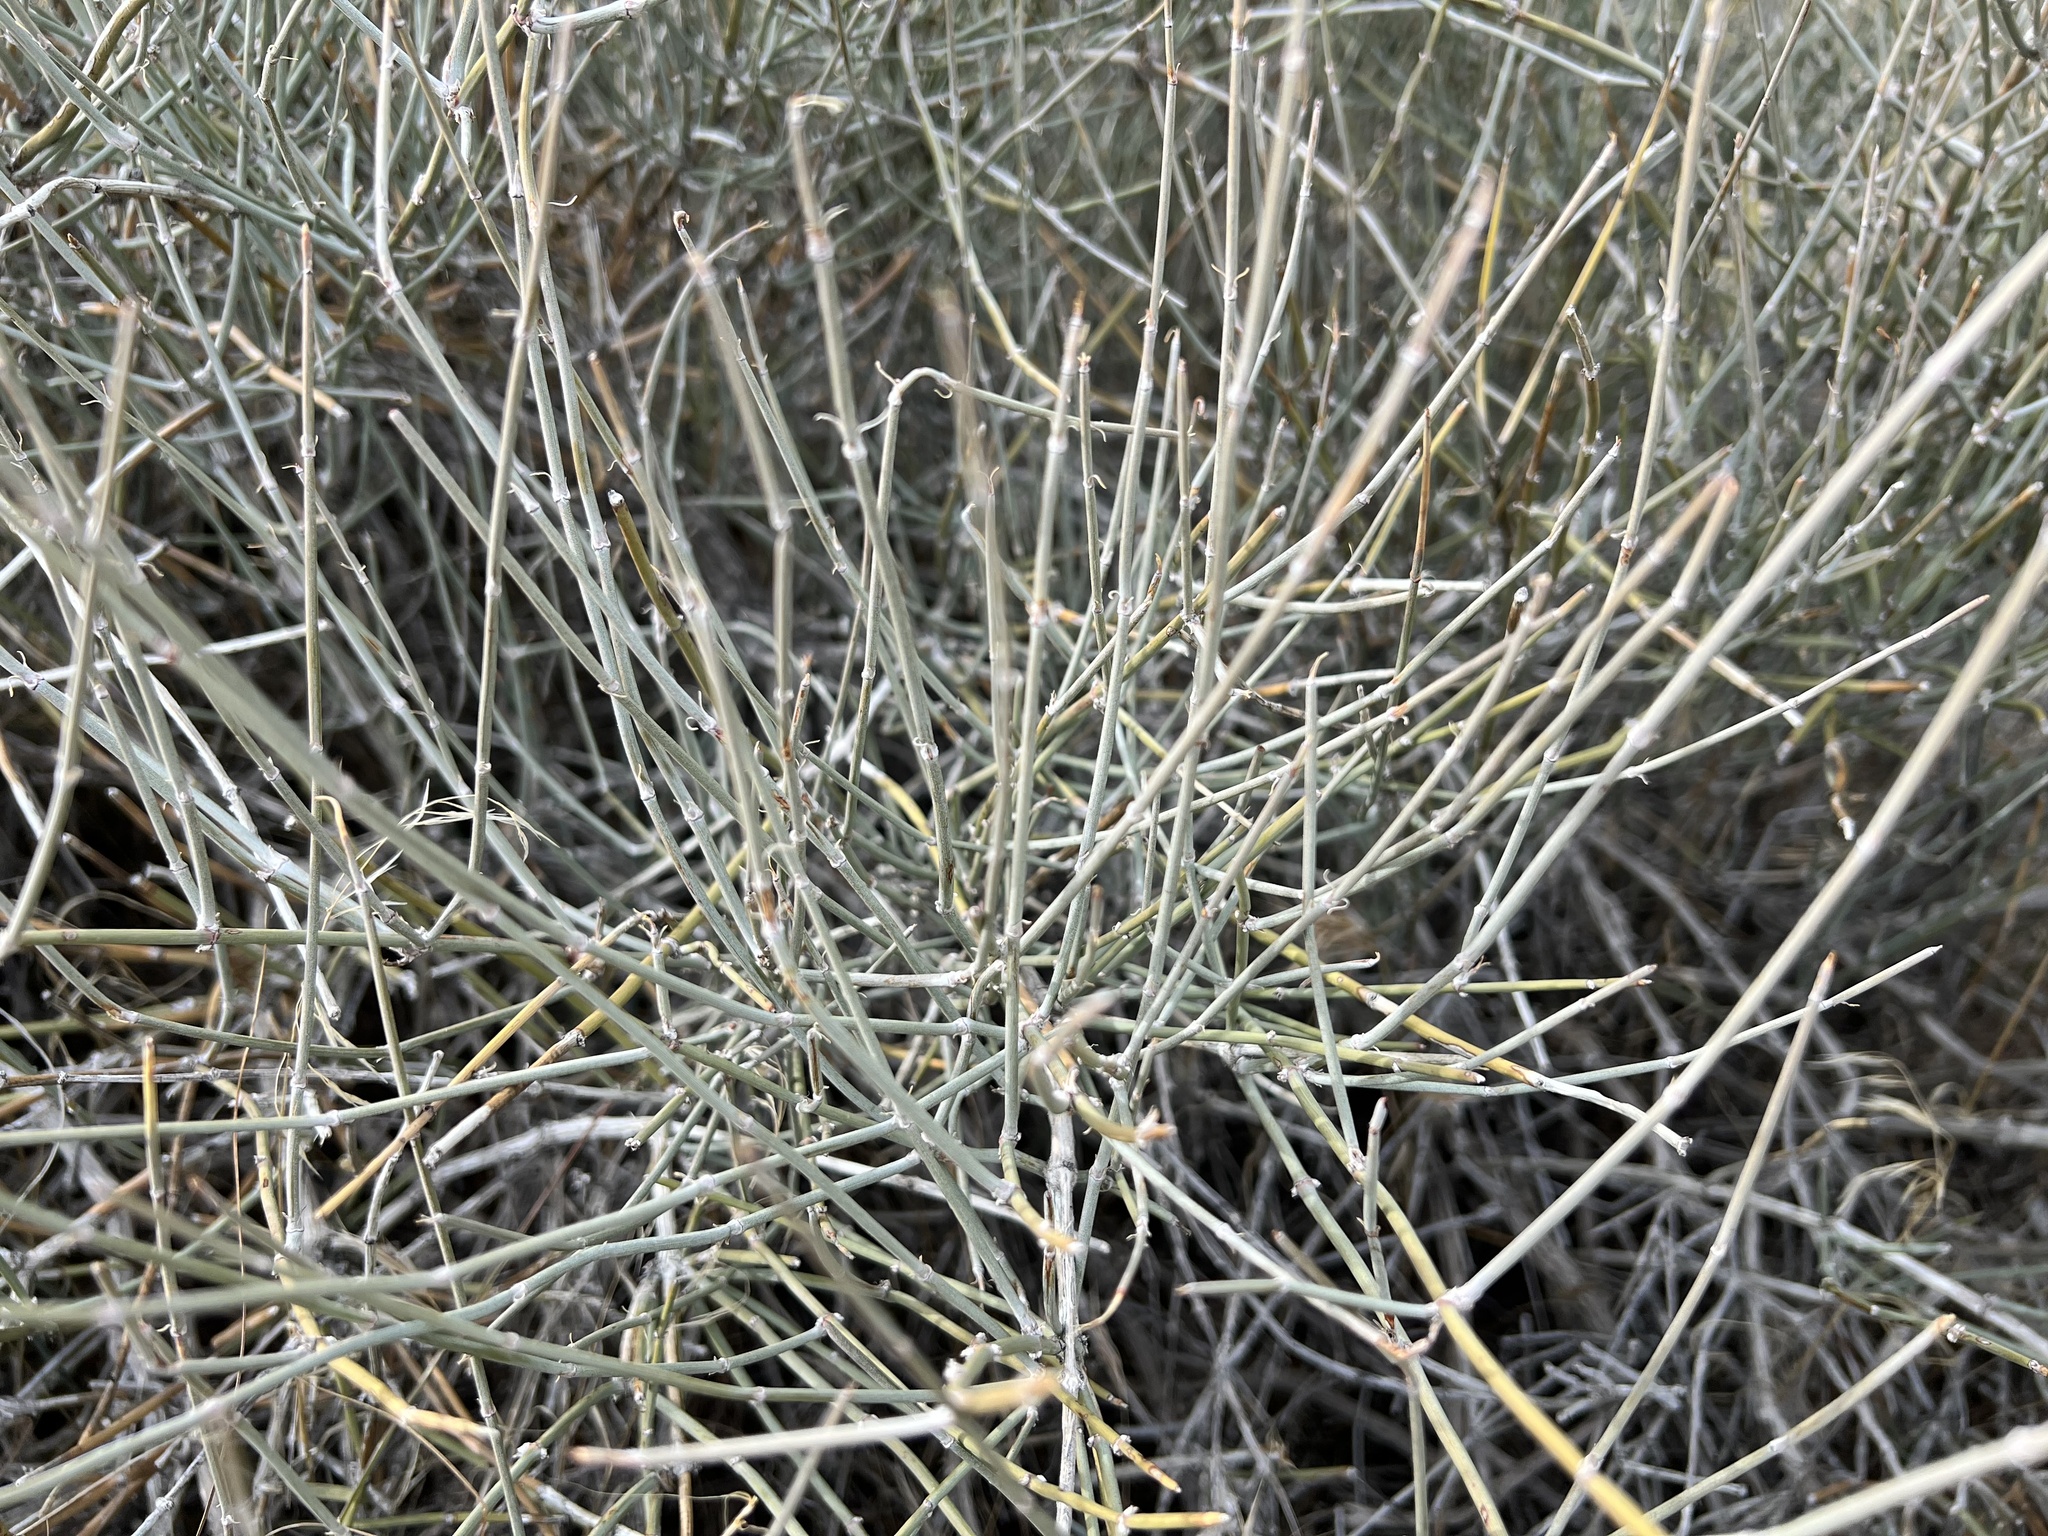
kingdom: Plantae
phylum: Tracheophyta
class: Gnetopsida
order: Ephedrales
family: Ephedraceae
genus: Ephedra
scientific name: Ephedra nevadensis
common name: Gray ephedra
